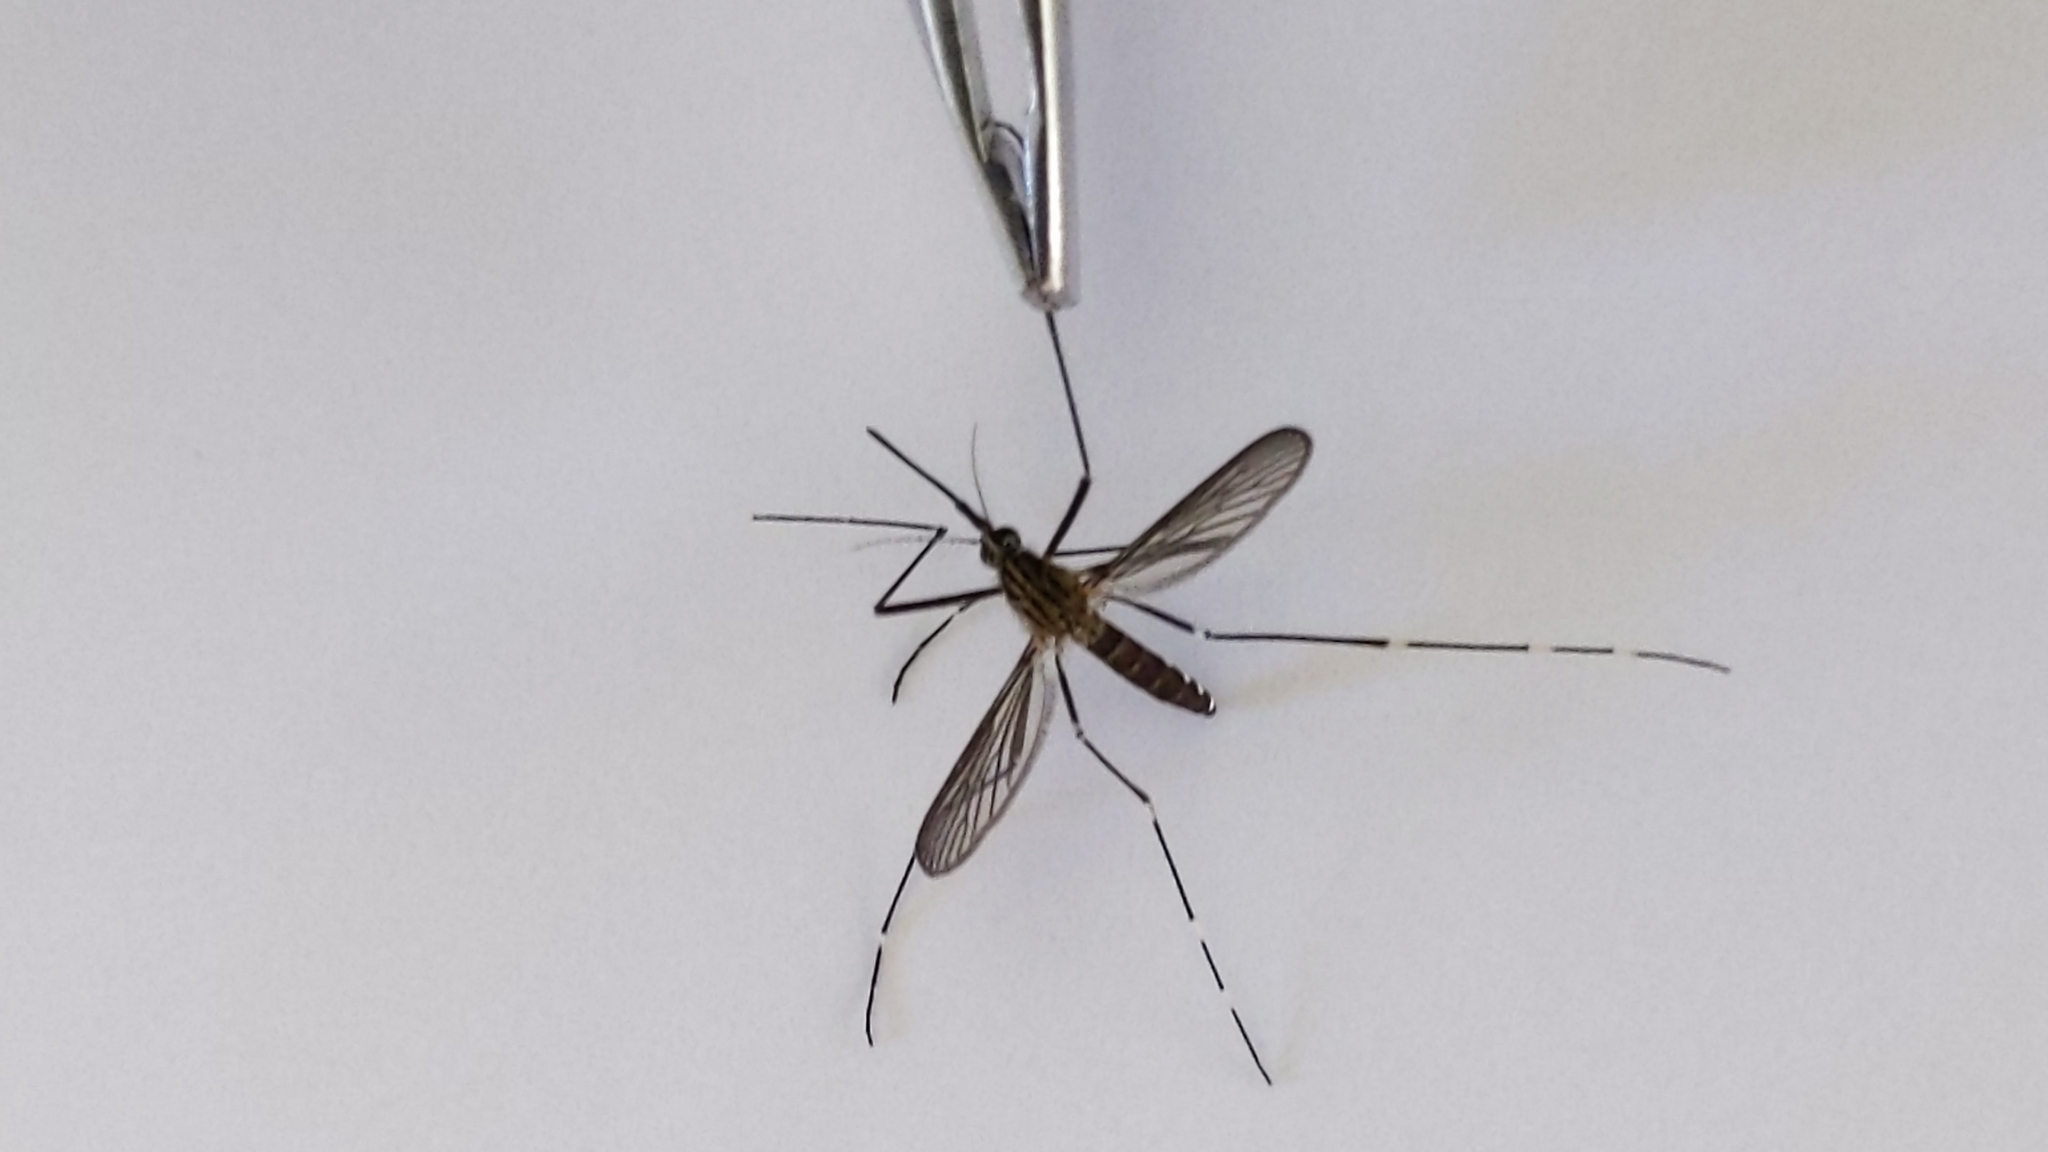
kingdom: Animalia
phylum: Arthropoda
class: Insecta
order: Diptera
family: Culicidae
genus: Aedes
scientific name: Aedes japonicus
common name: Asian bush mosquito
